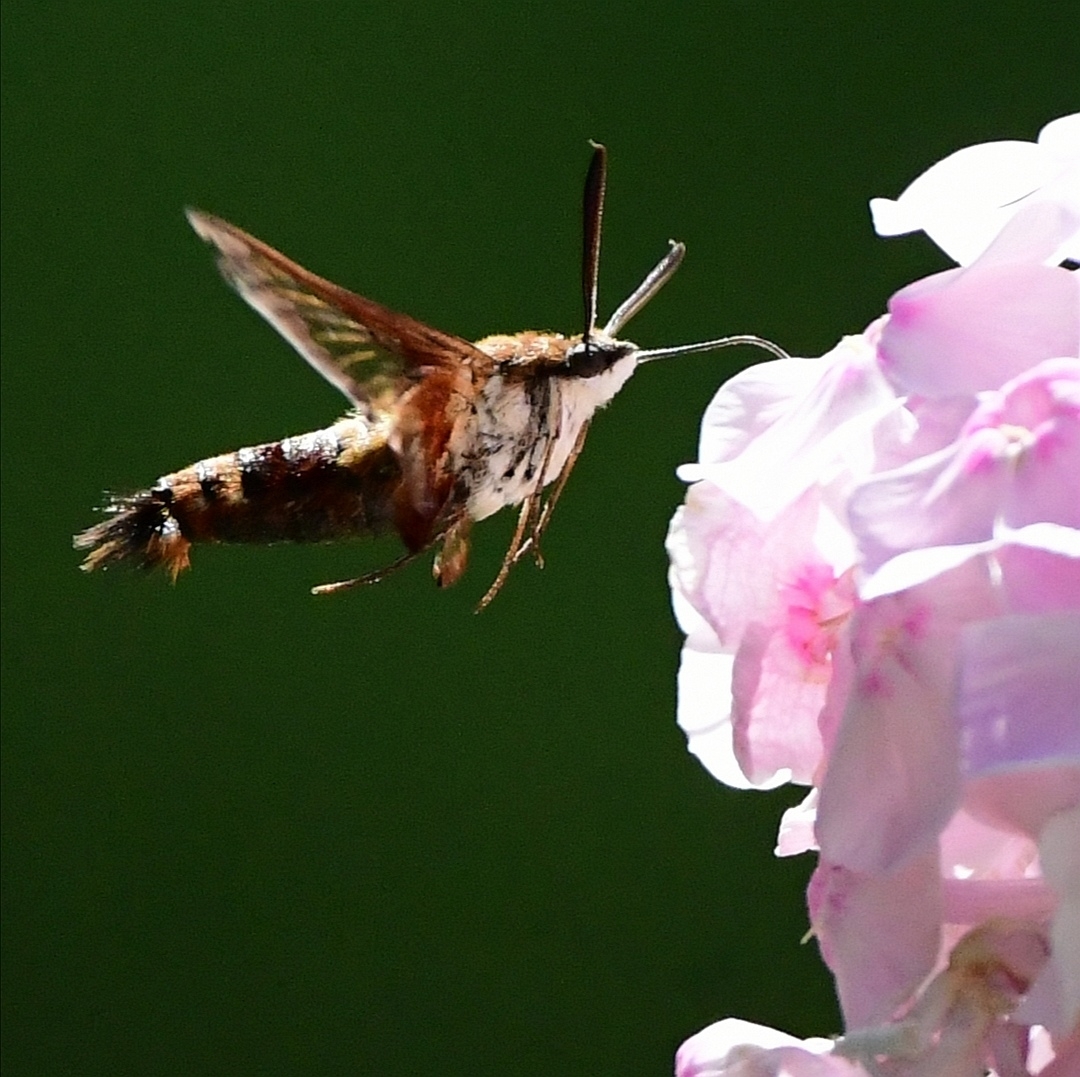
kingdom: Animalia
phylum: Arthropoda
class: Insecta
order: Lepidoptera
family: Sphingidae
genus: Hemaris
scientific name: Hemaris thysbe
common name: Common clear-wing
